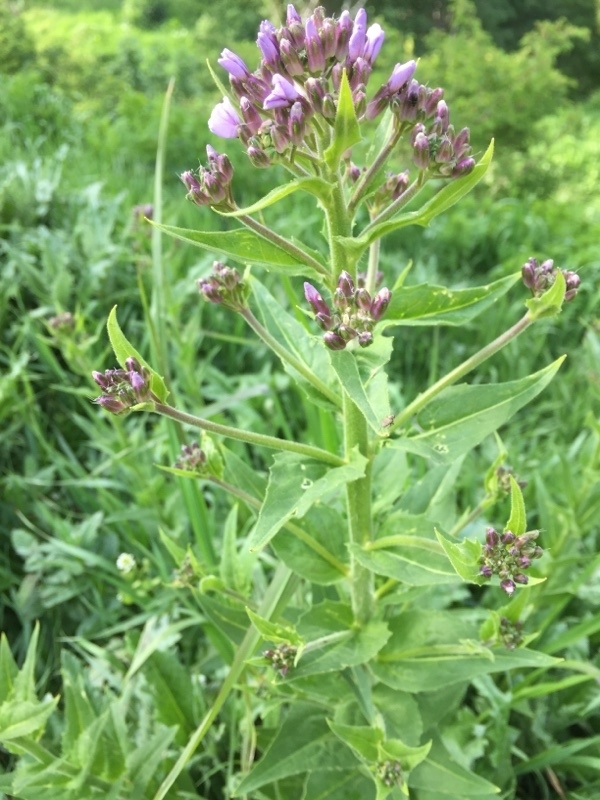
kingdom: Plantae
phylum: Tracheophyta
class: Magnoliopsida
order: Brassicales
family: Brassicaceae
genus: Hesperis
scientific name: Hesperis matronalis
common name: Dame's-violet
